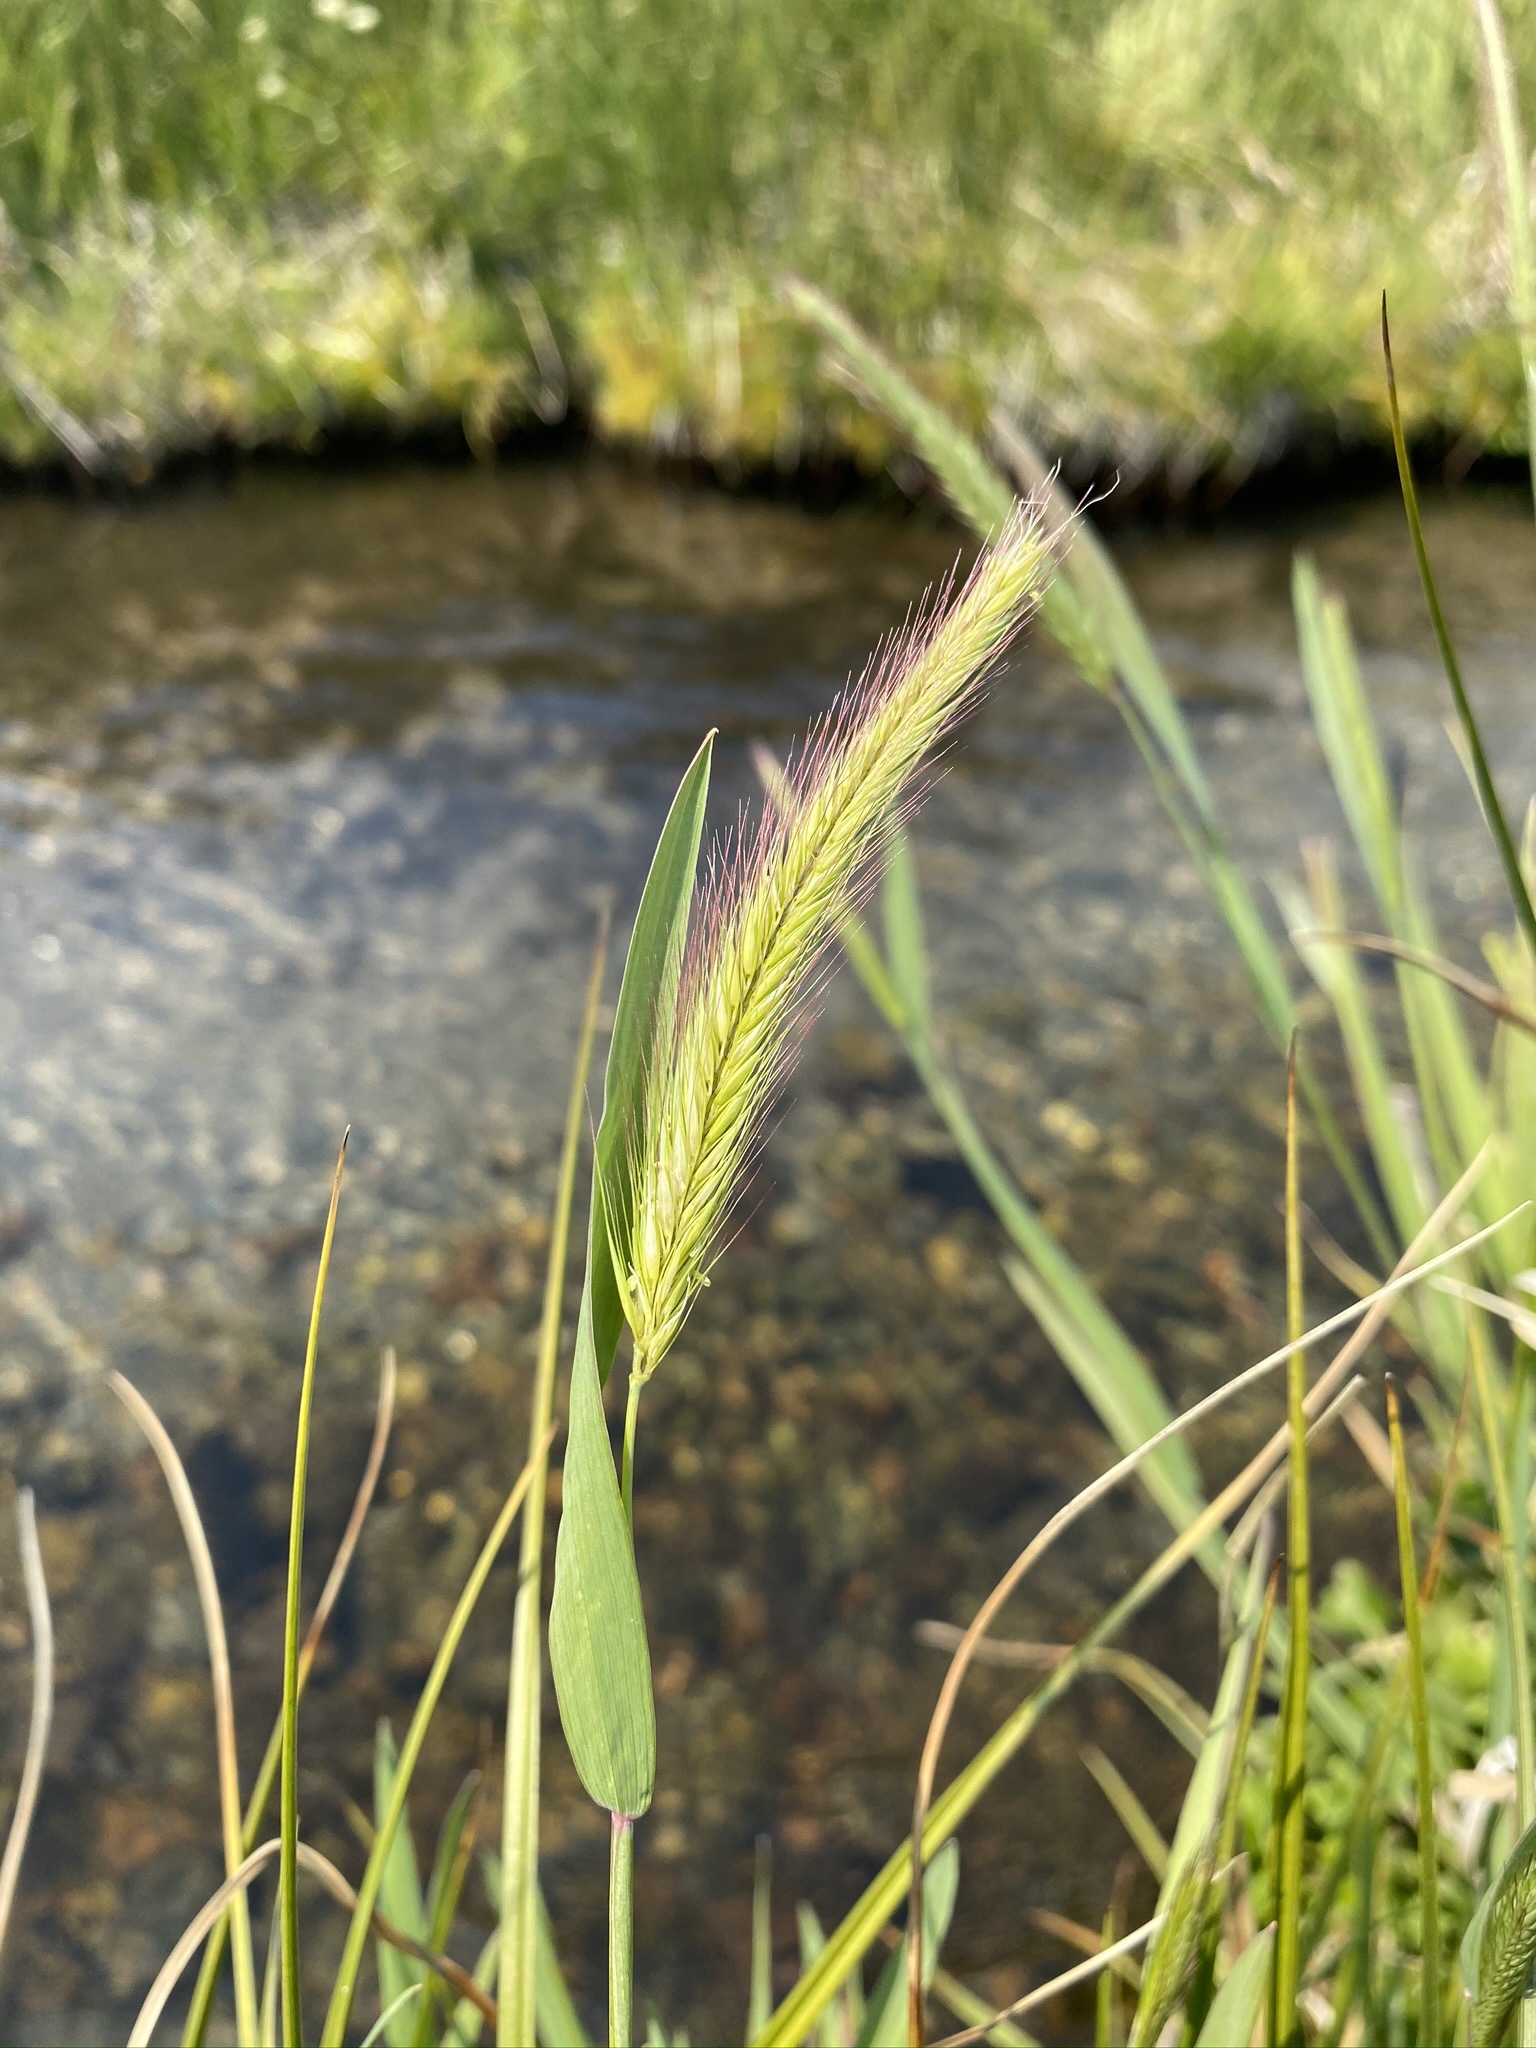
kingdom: Plantae
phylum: Tracheophyta
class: Liliopsida
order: Poales
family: Poaceae
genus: Hordeum
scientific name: Hordeum brachyantherum
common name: Meadow barley
